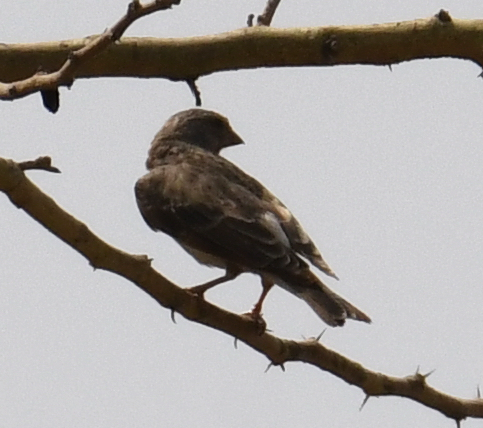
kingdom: Animalia
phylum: Chordata
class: Aves
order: Passeriformes
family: Fringillidae
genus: Crithagra
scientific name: Crithagra leucopygia
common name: White-rumped seedeater
